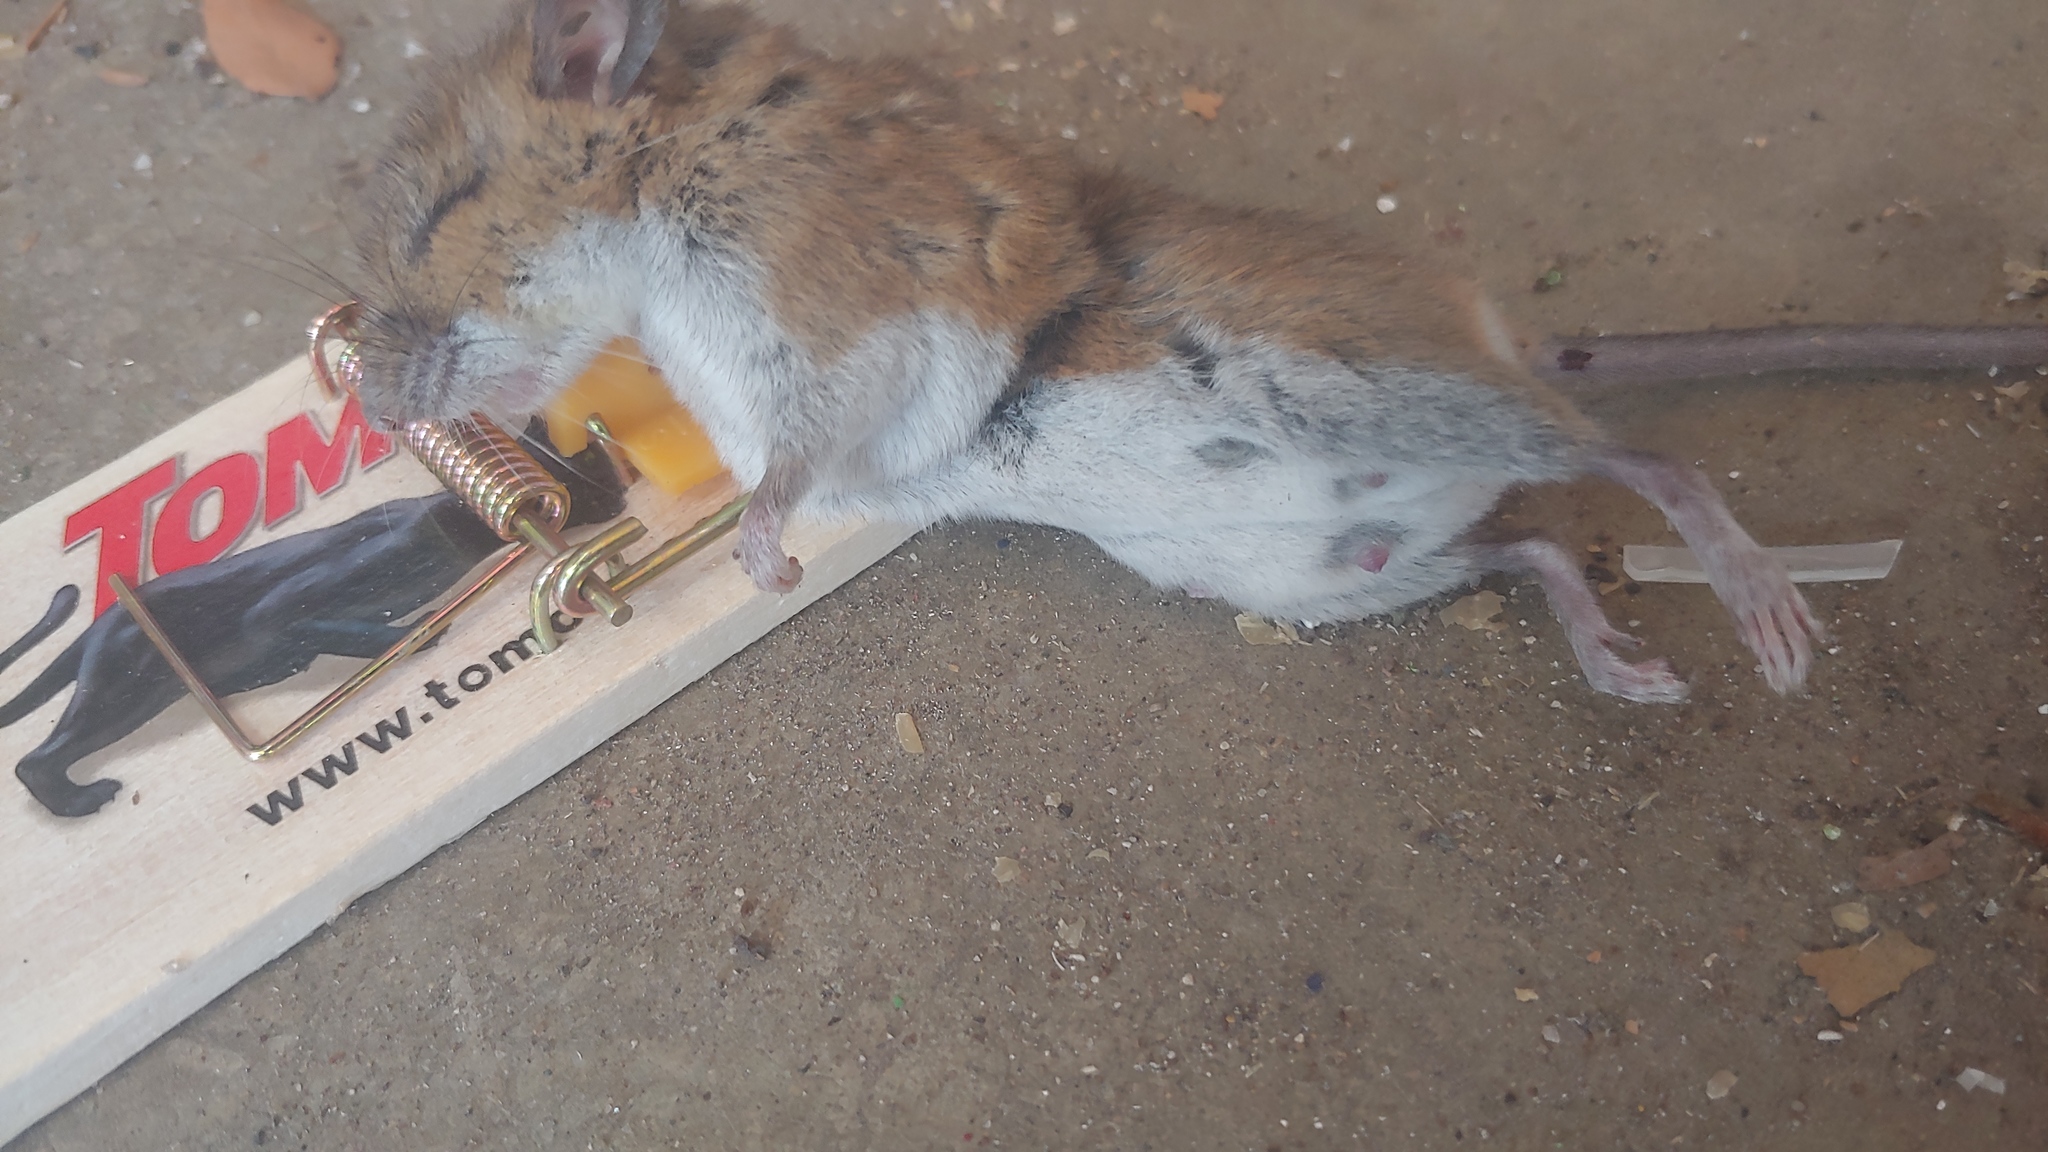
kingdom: Animalia
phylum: Chordata
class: Mammalia
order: Rodentia
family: Cricetidae
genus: Peromyscus
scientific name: Peromyscus leucopus
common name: White-footed deermouse
